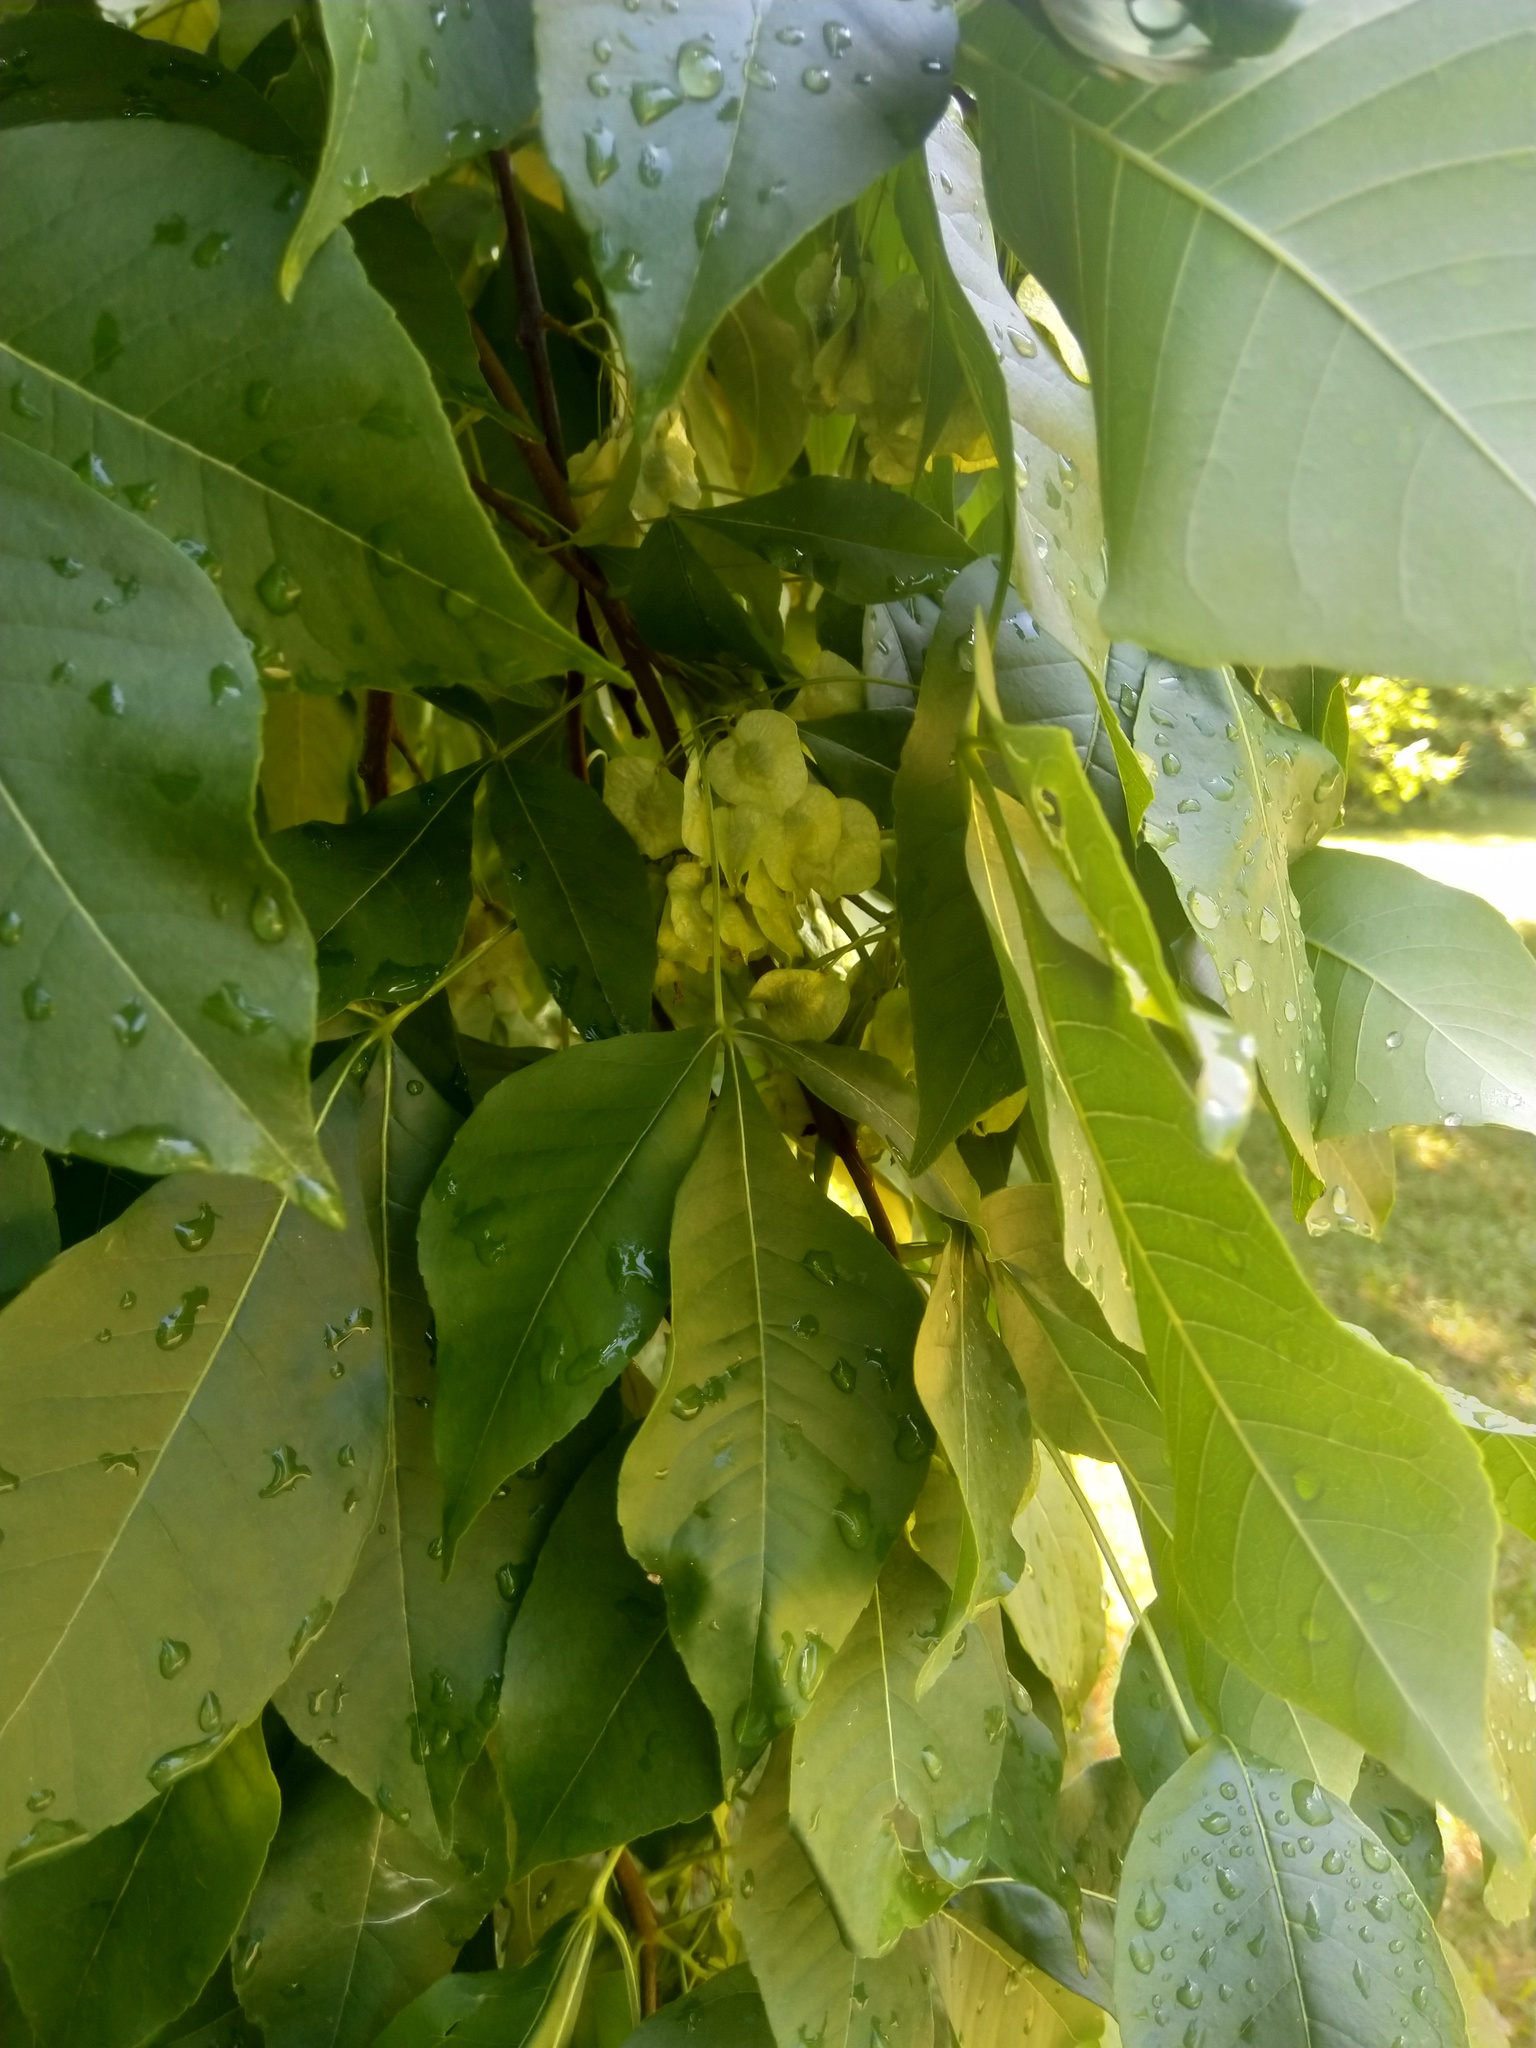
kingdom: Plantae
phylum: Tracheophyta
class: Magnoliopsida
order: Sapindales
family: Rutaceae
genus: Ptelea
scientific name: Ptelea trifoliata
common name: Common hop-tree
